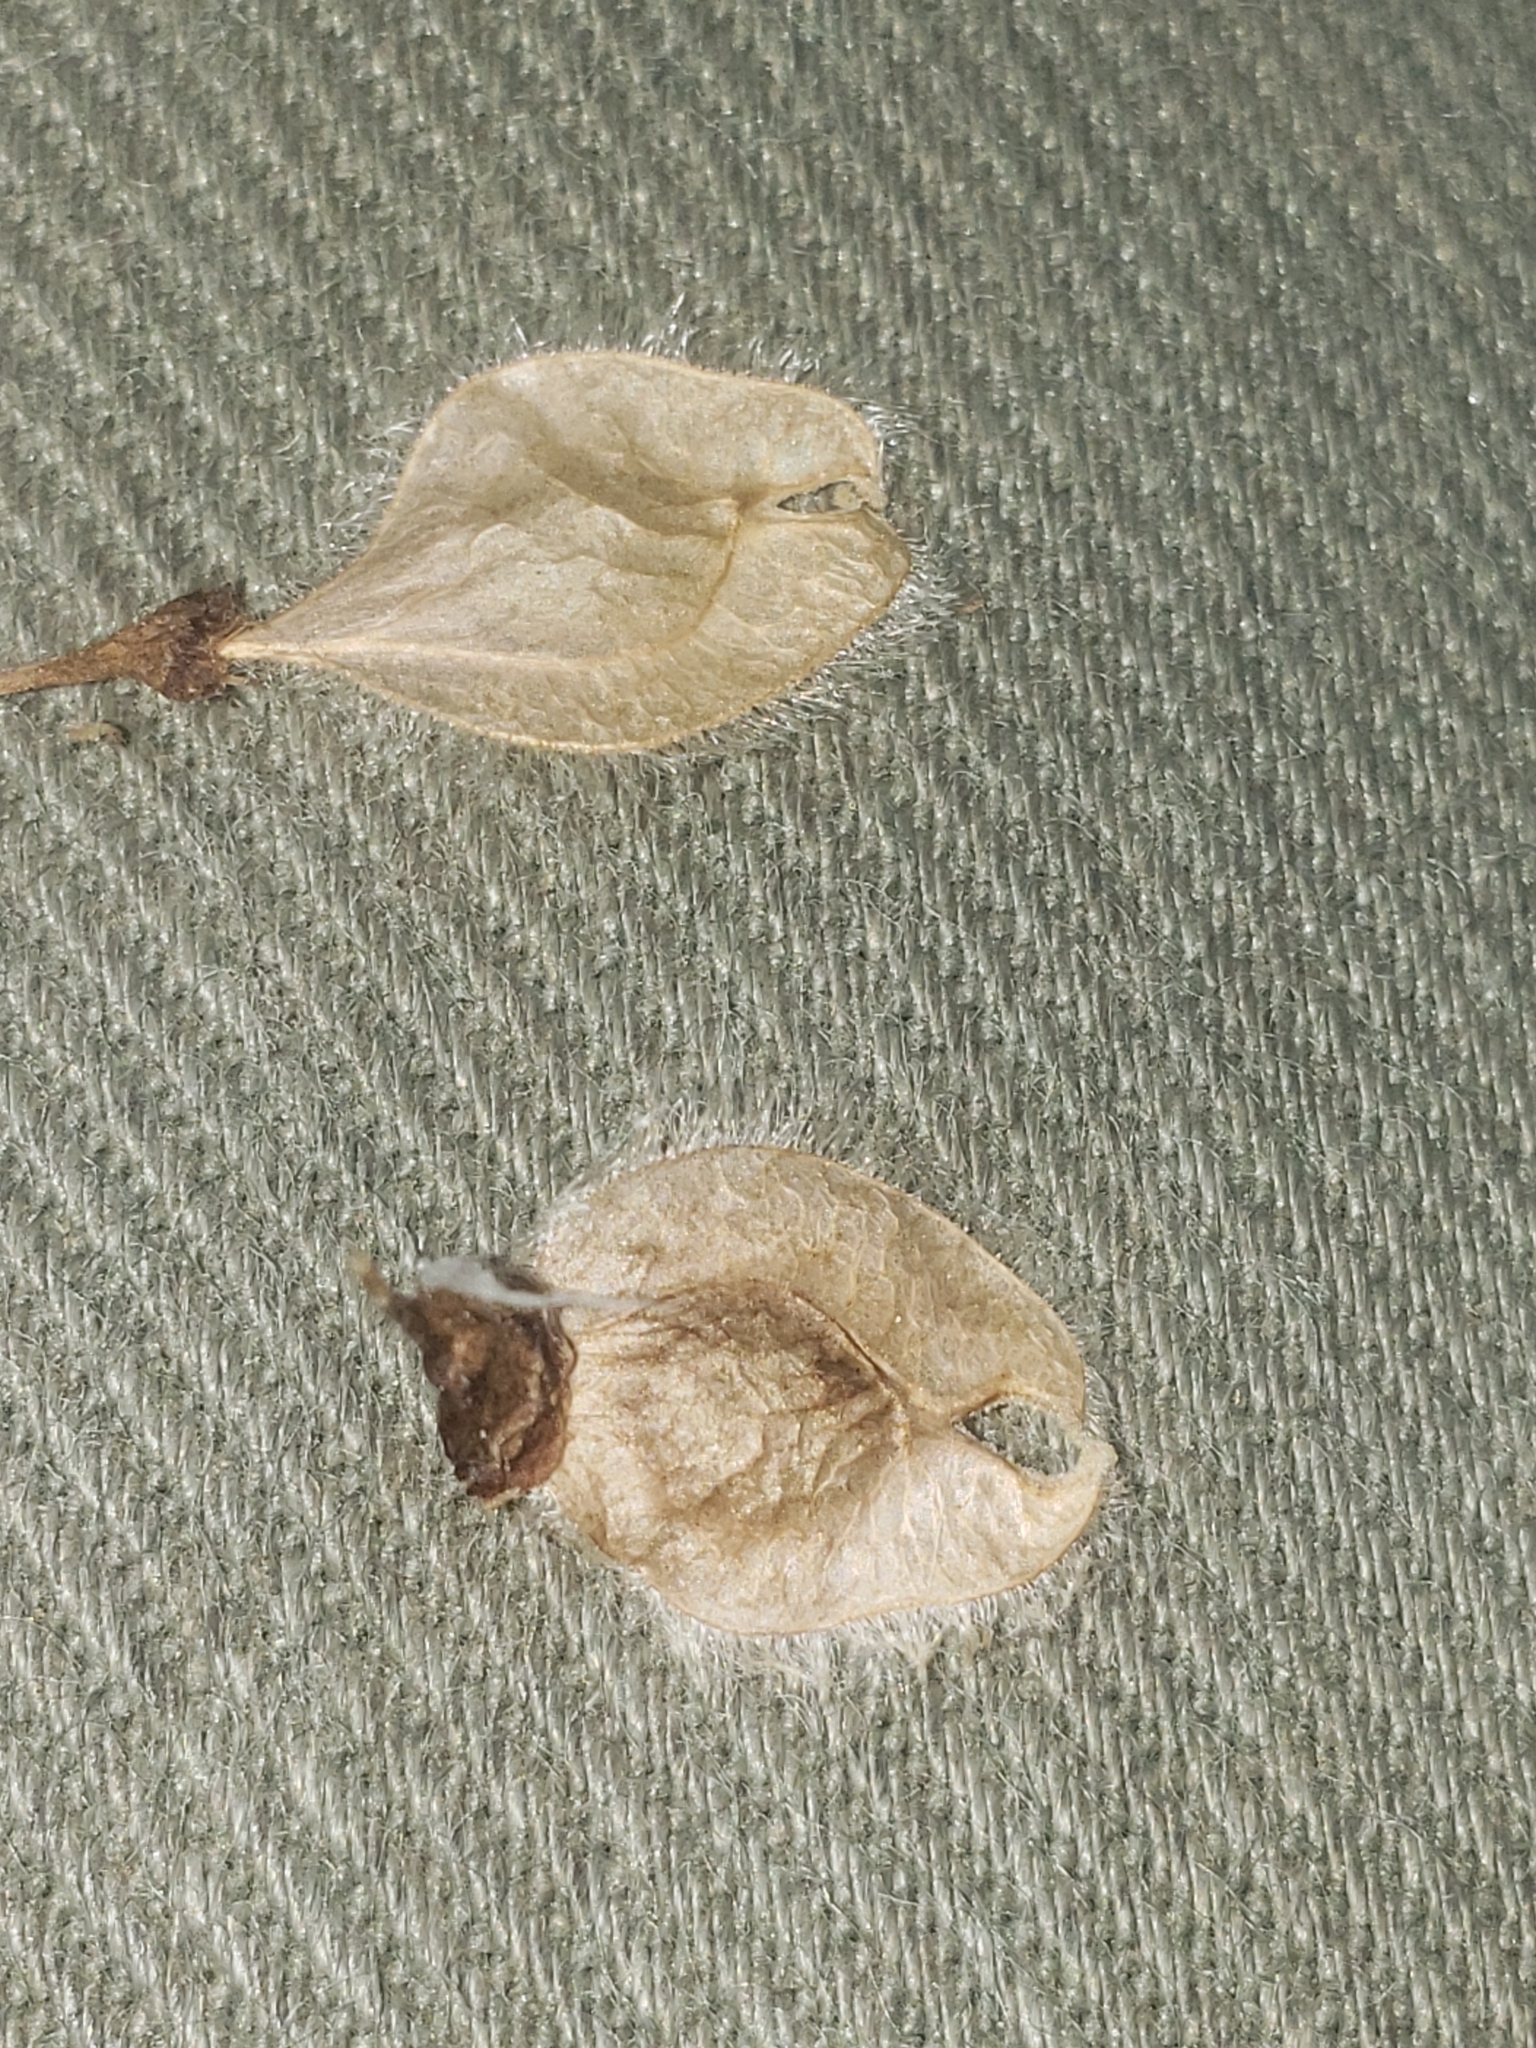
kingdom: Plantae
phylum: Tracheophyta
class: Magnoliopsida
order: Rosales
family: Ulmaceae
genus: Ulmus
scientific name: Ulmus americana
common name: American elm
